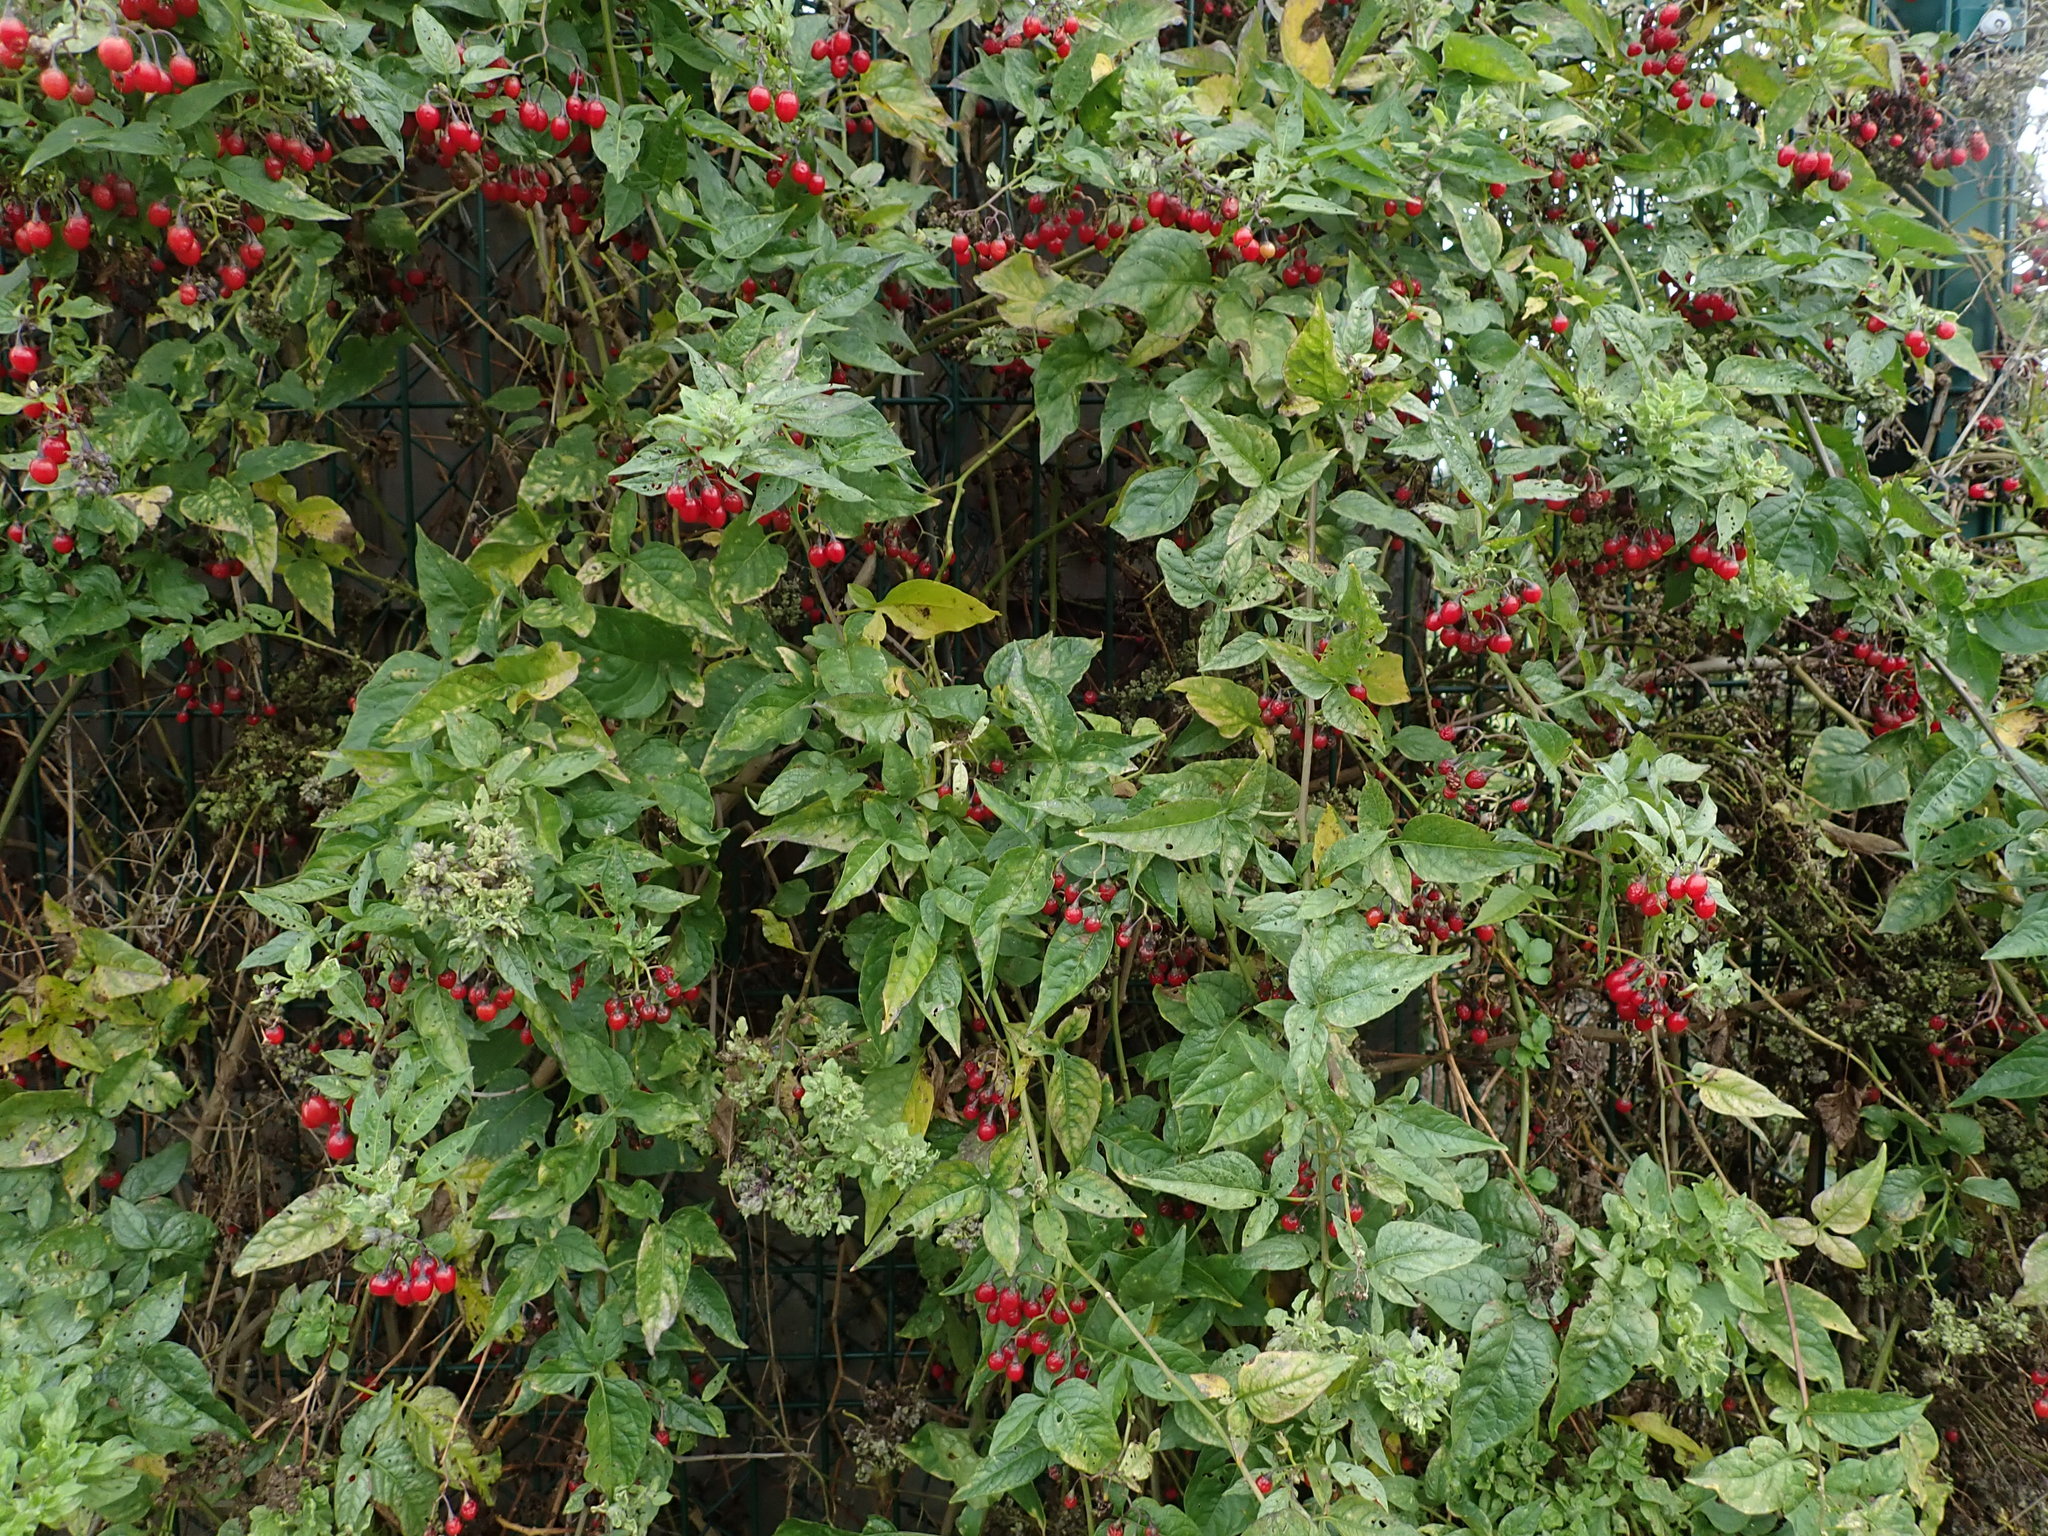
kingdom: Plantae
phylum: Tracheophyta
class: Magnoliopsida
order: Solanales
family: Solanaceae
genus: Solanum
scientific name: Solanum dulcamara
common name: Climbing nightshade
